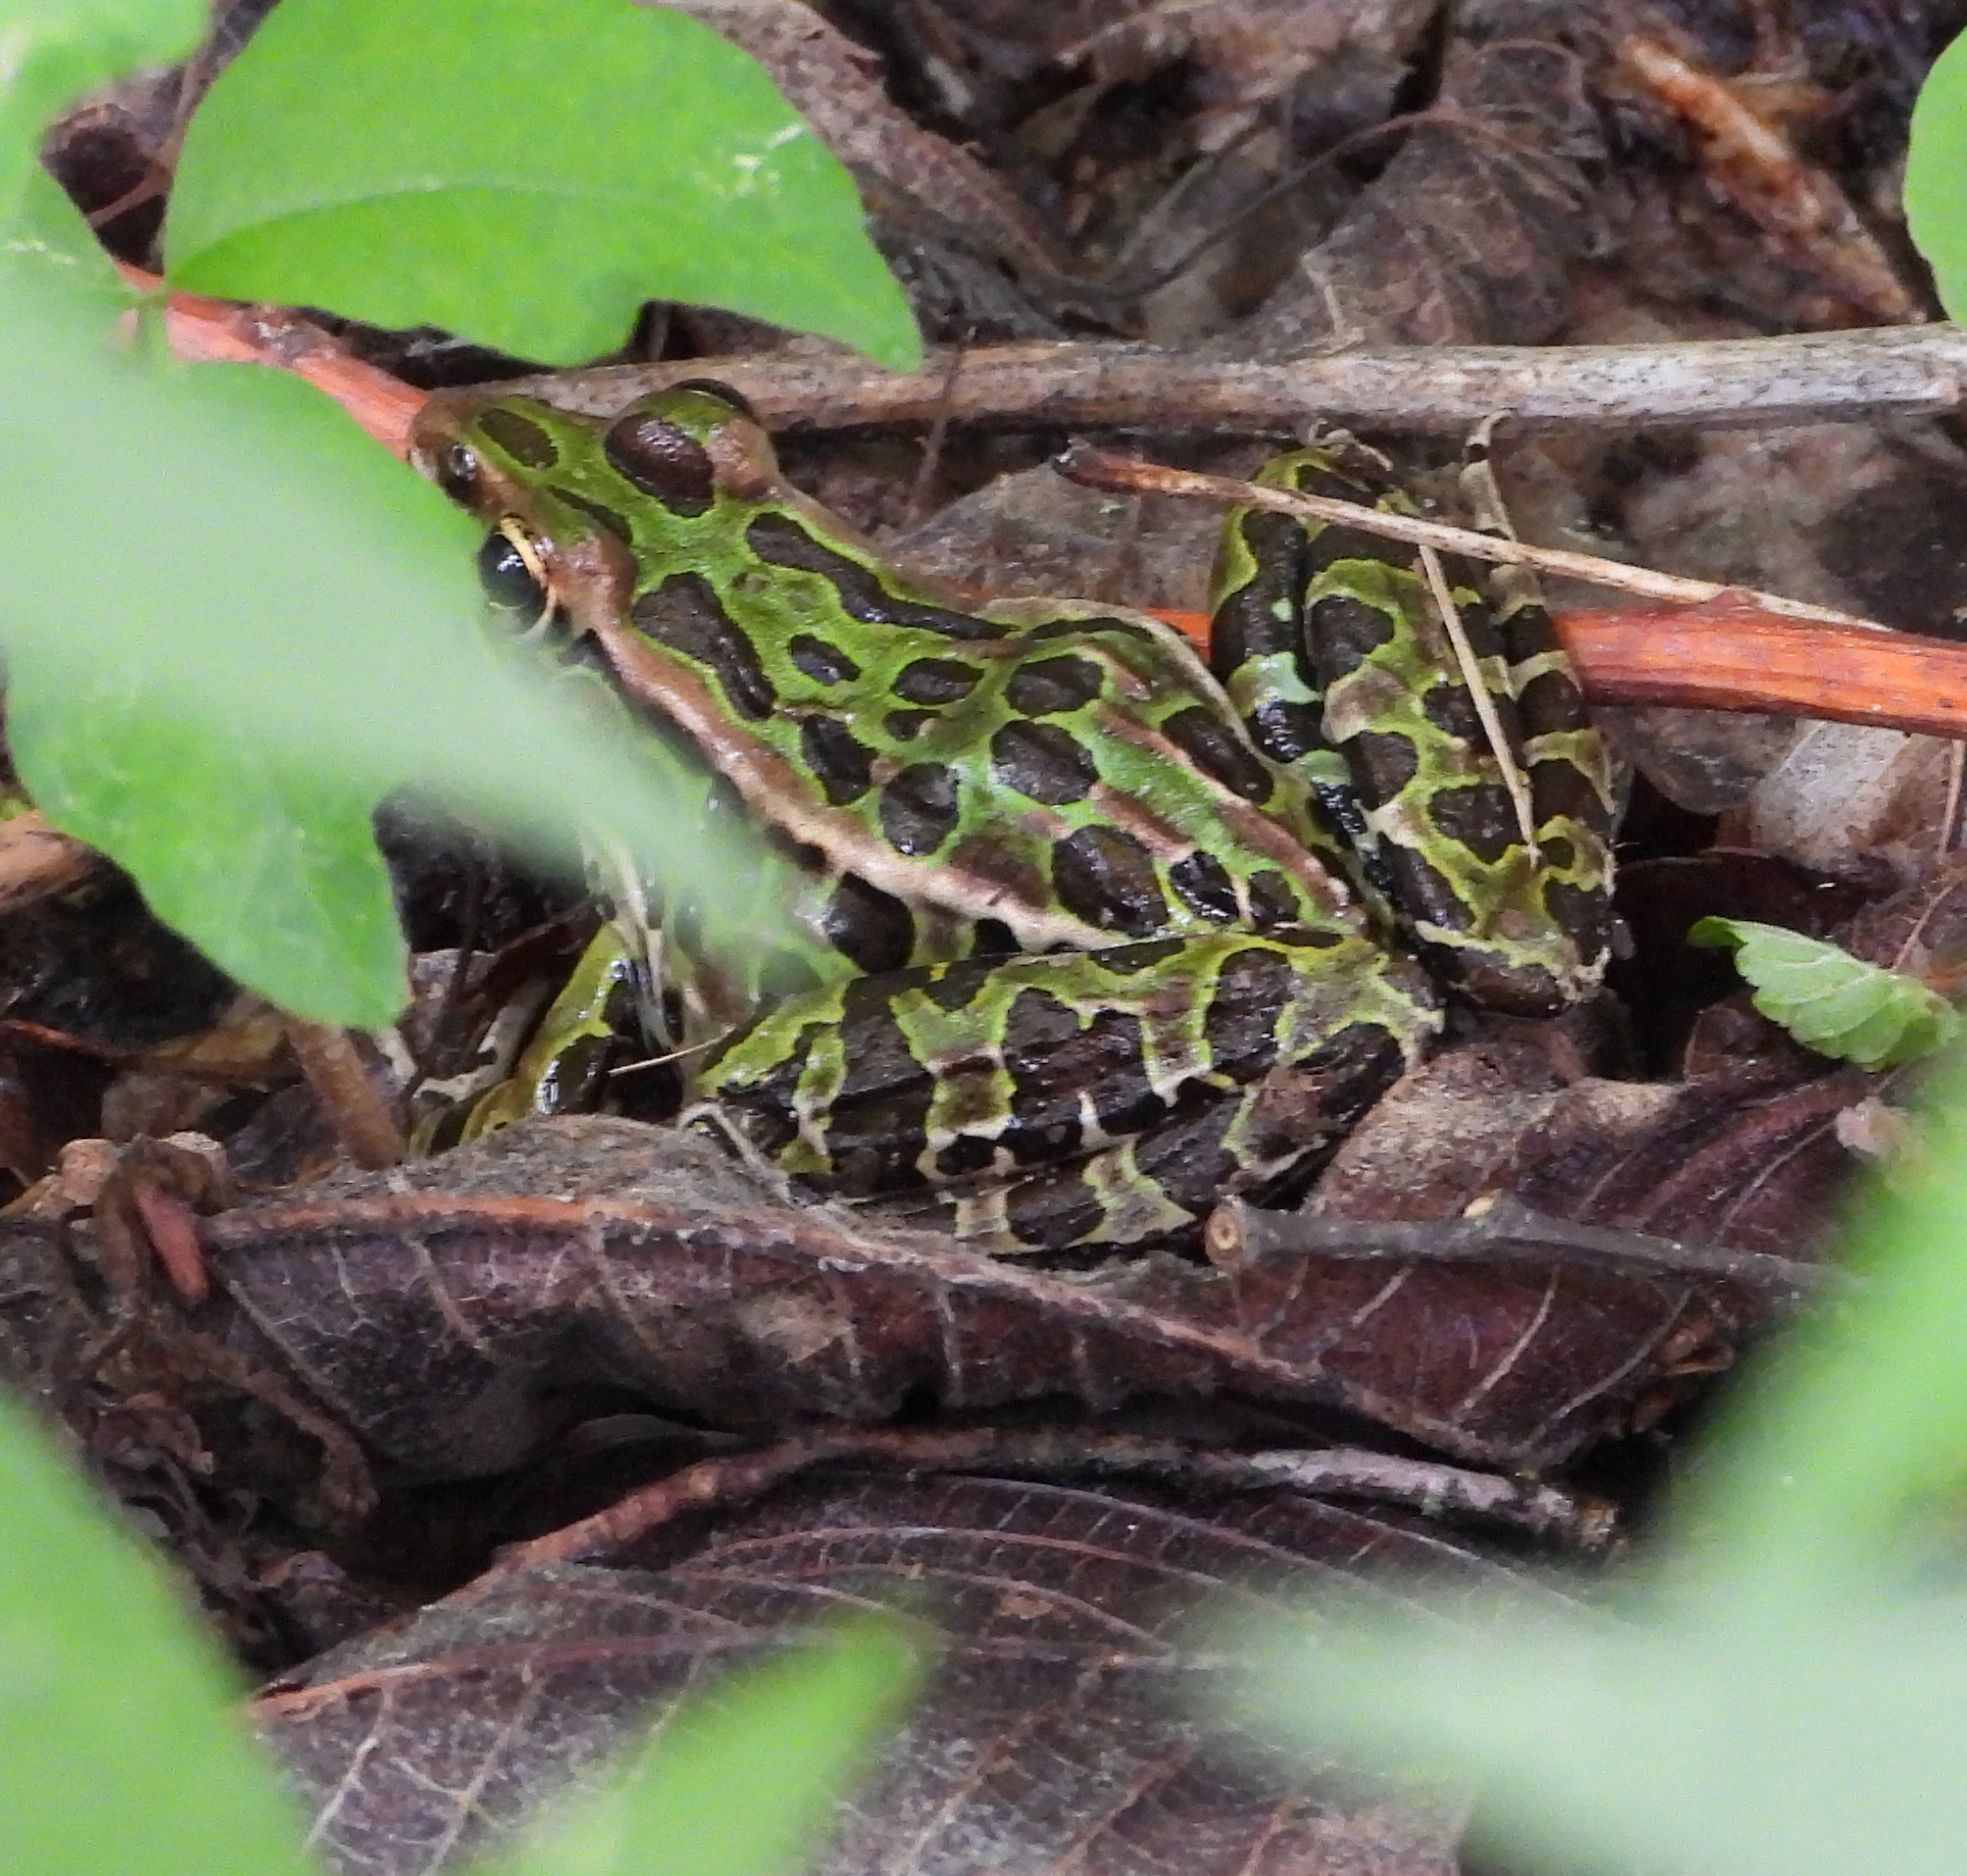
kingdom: Animalia
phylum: Chordata
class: Amphibia
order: Anura
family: Ranidae
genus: Lithobates
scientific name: Lithobates pipiens
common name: Northern leopard frog
